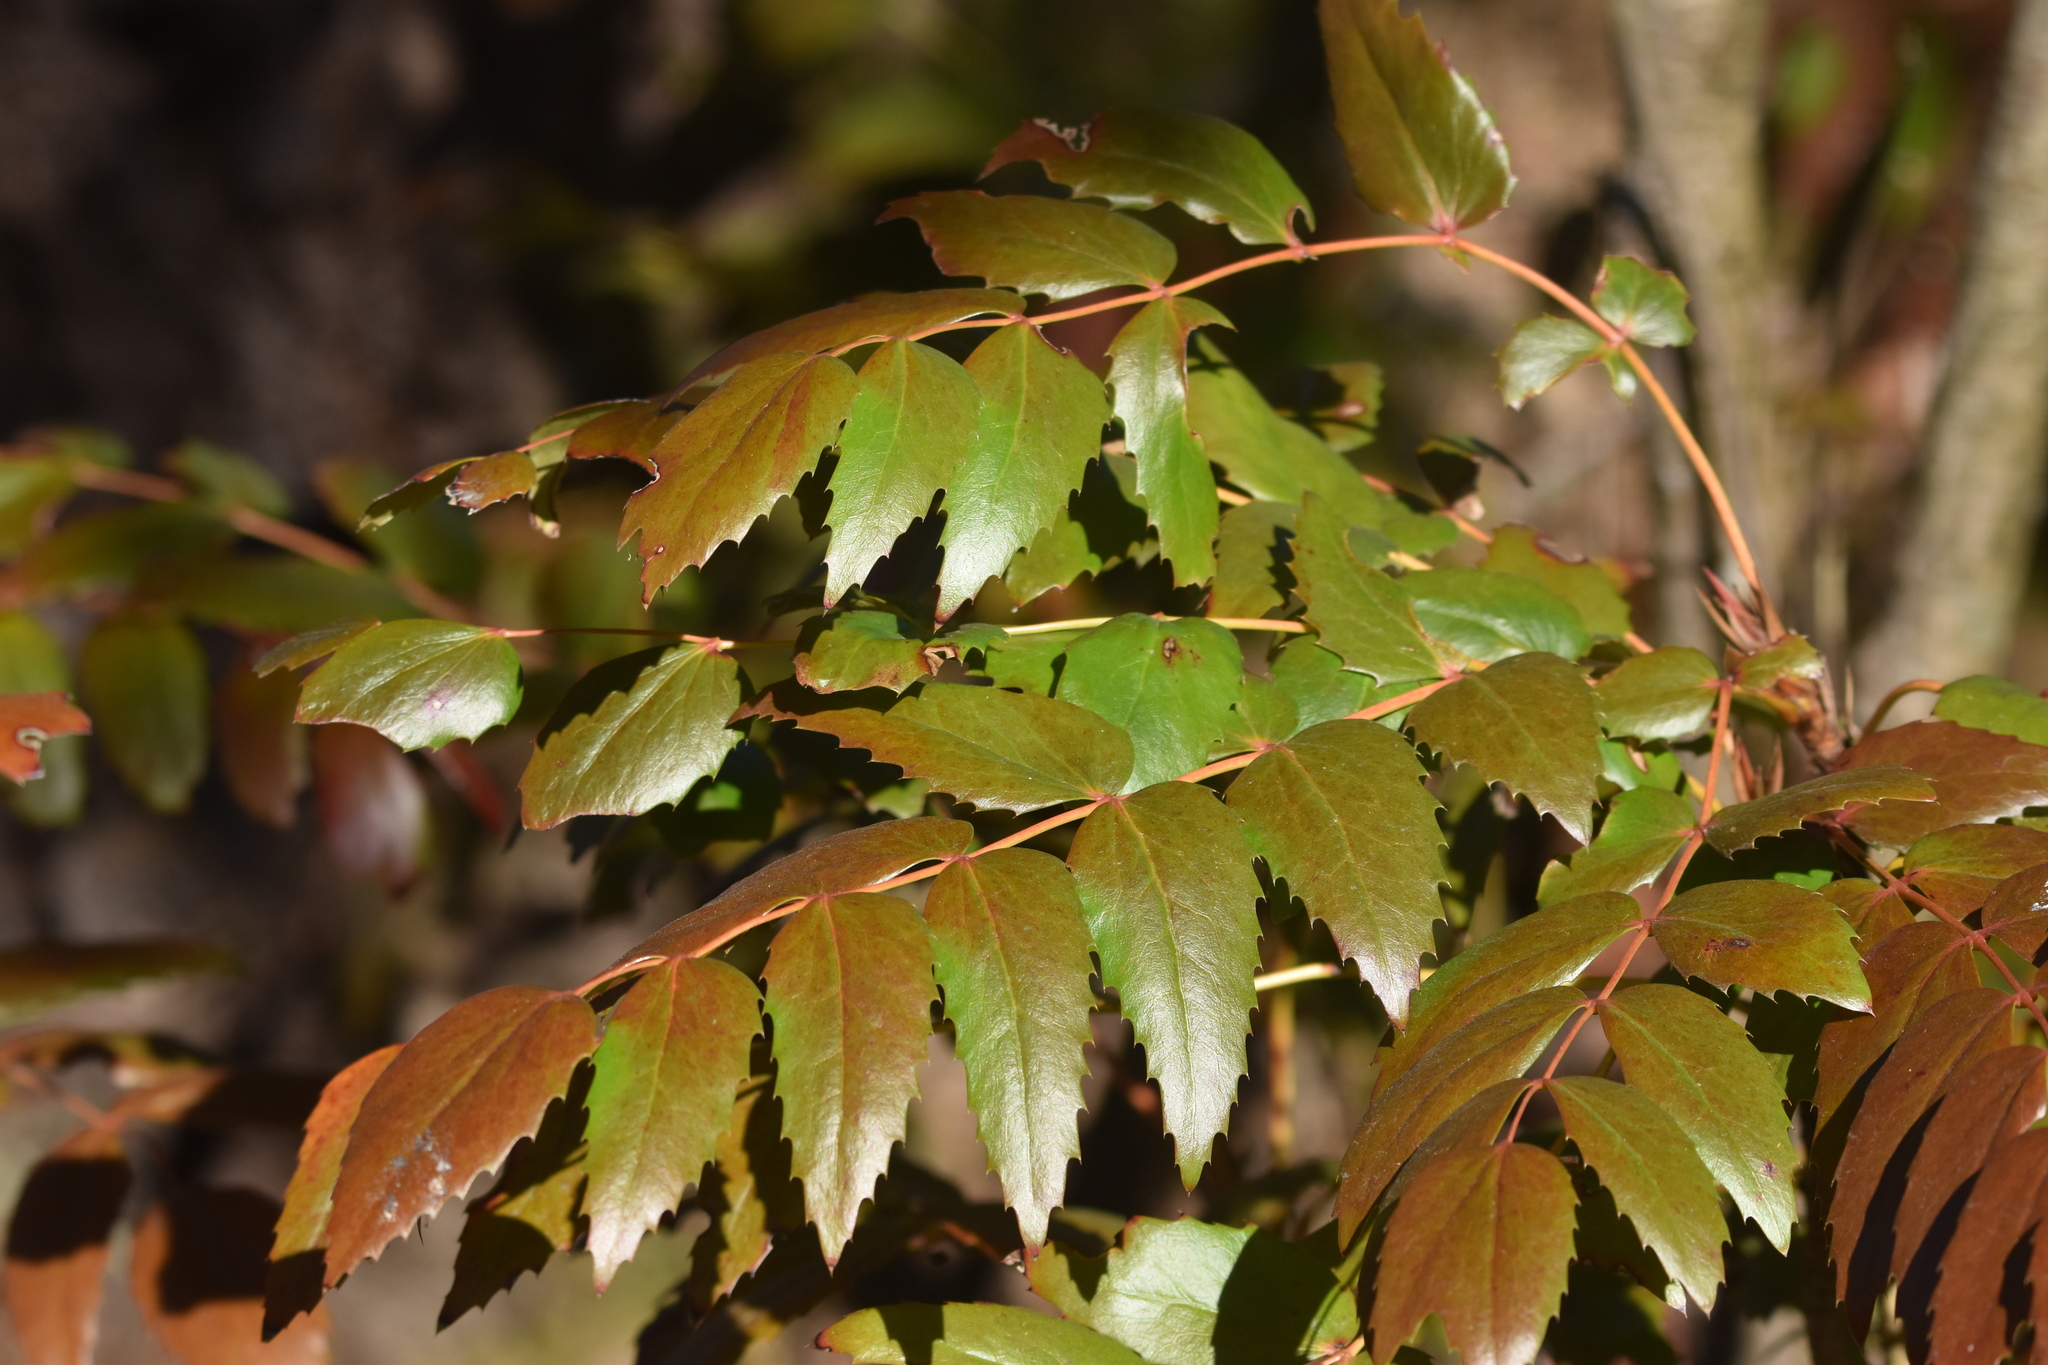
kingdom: Plantae
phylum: Tracheophyta
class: Magnoliopsida
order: Ranunculales
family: Berberidaceae
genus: Mahonia
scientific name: Mahonia nervosa
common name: Cascade oregon-grape
